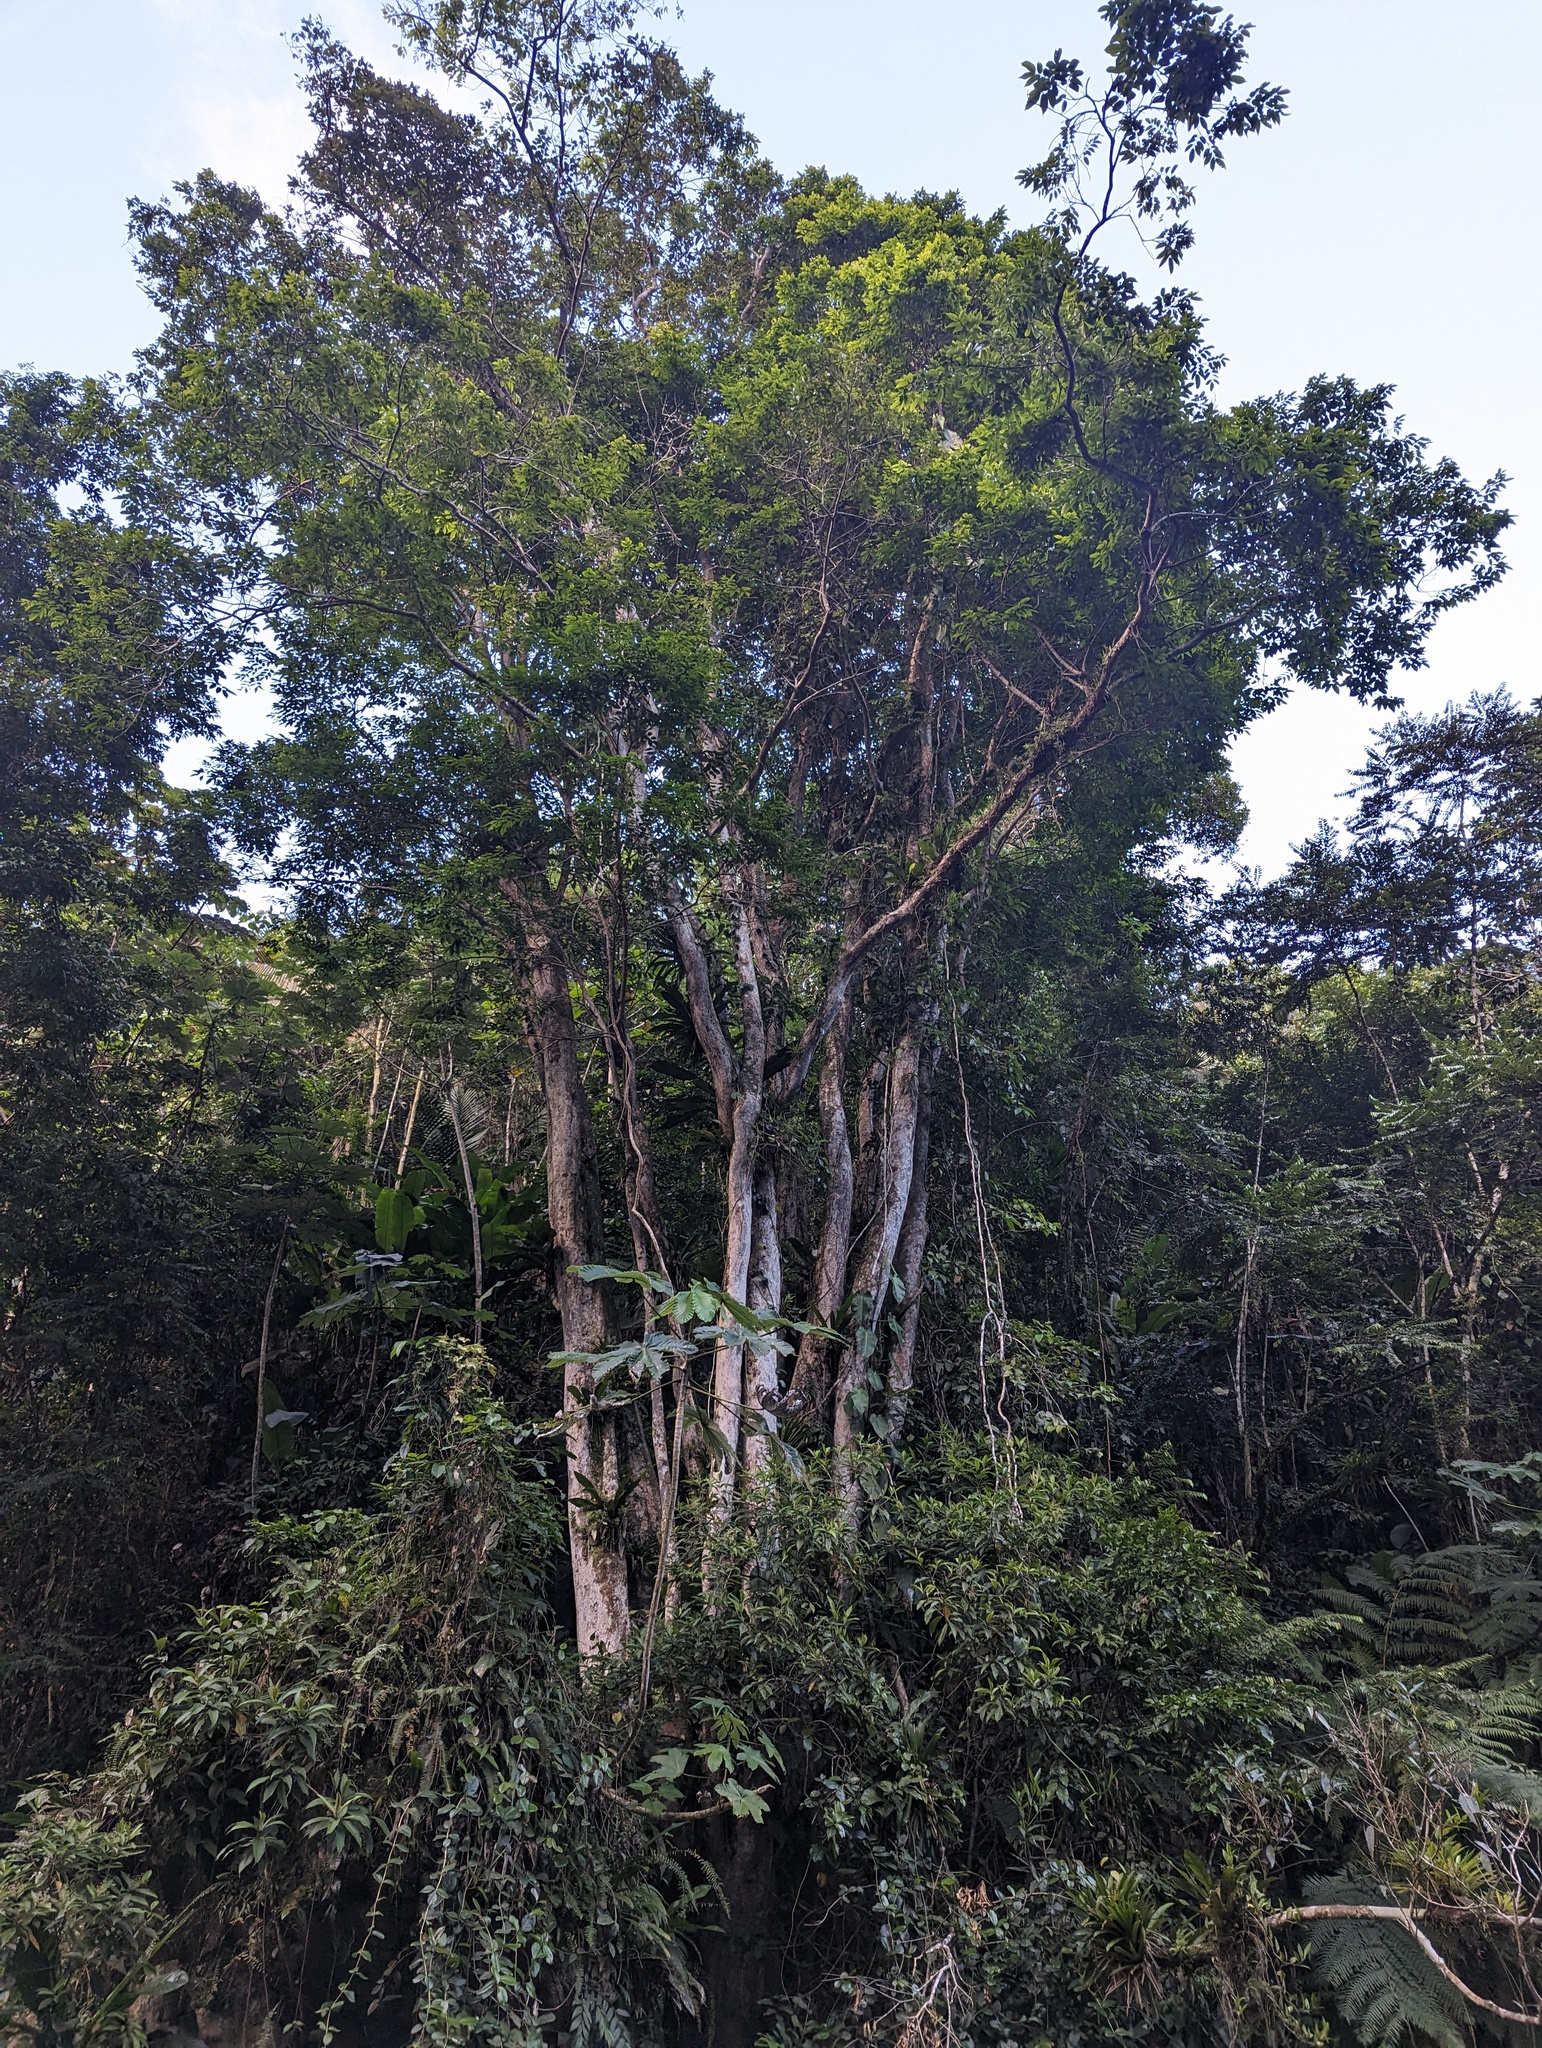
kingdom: Plantae
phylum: Tracheophyta
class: Magnoliopsida
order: Fabales
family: Fabaceae
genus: Pterocarpus
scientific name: Pterocarpus officinalis
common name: Bloodwood
